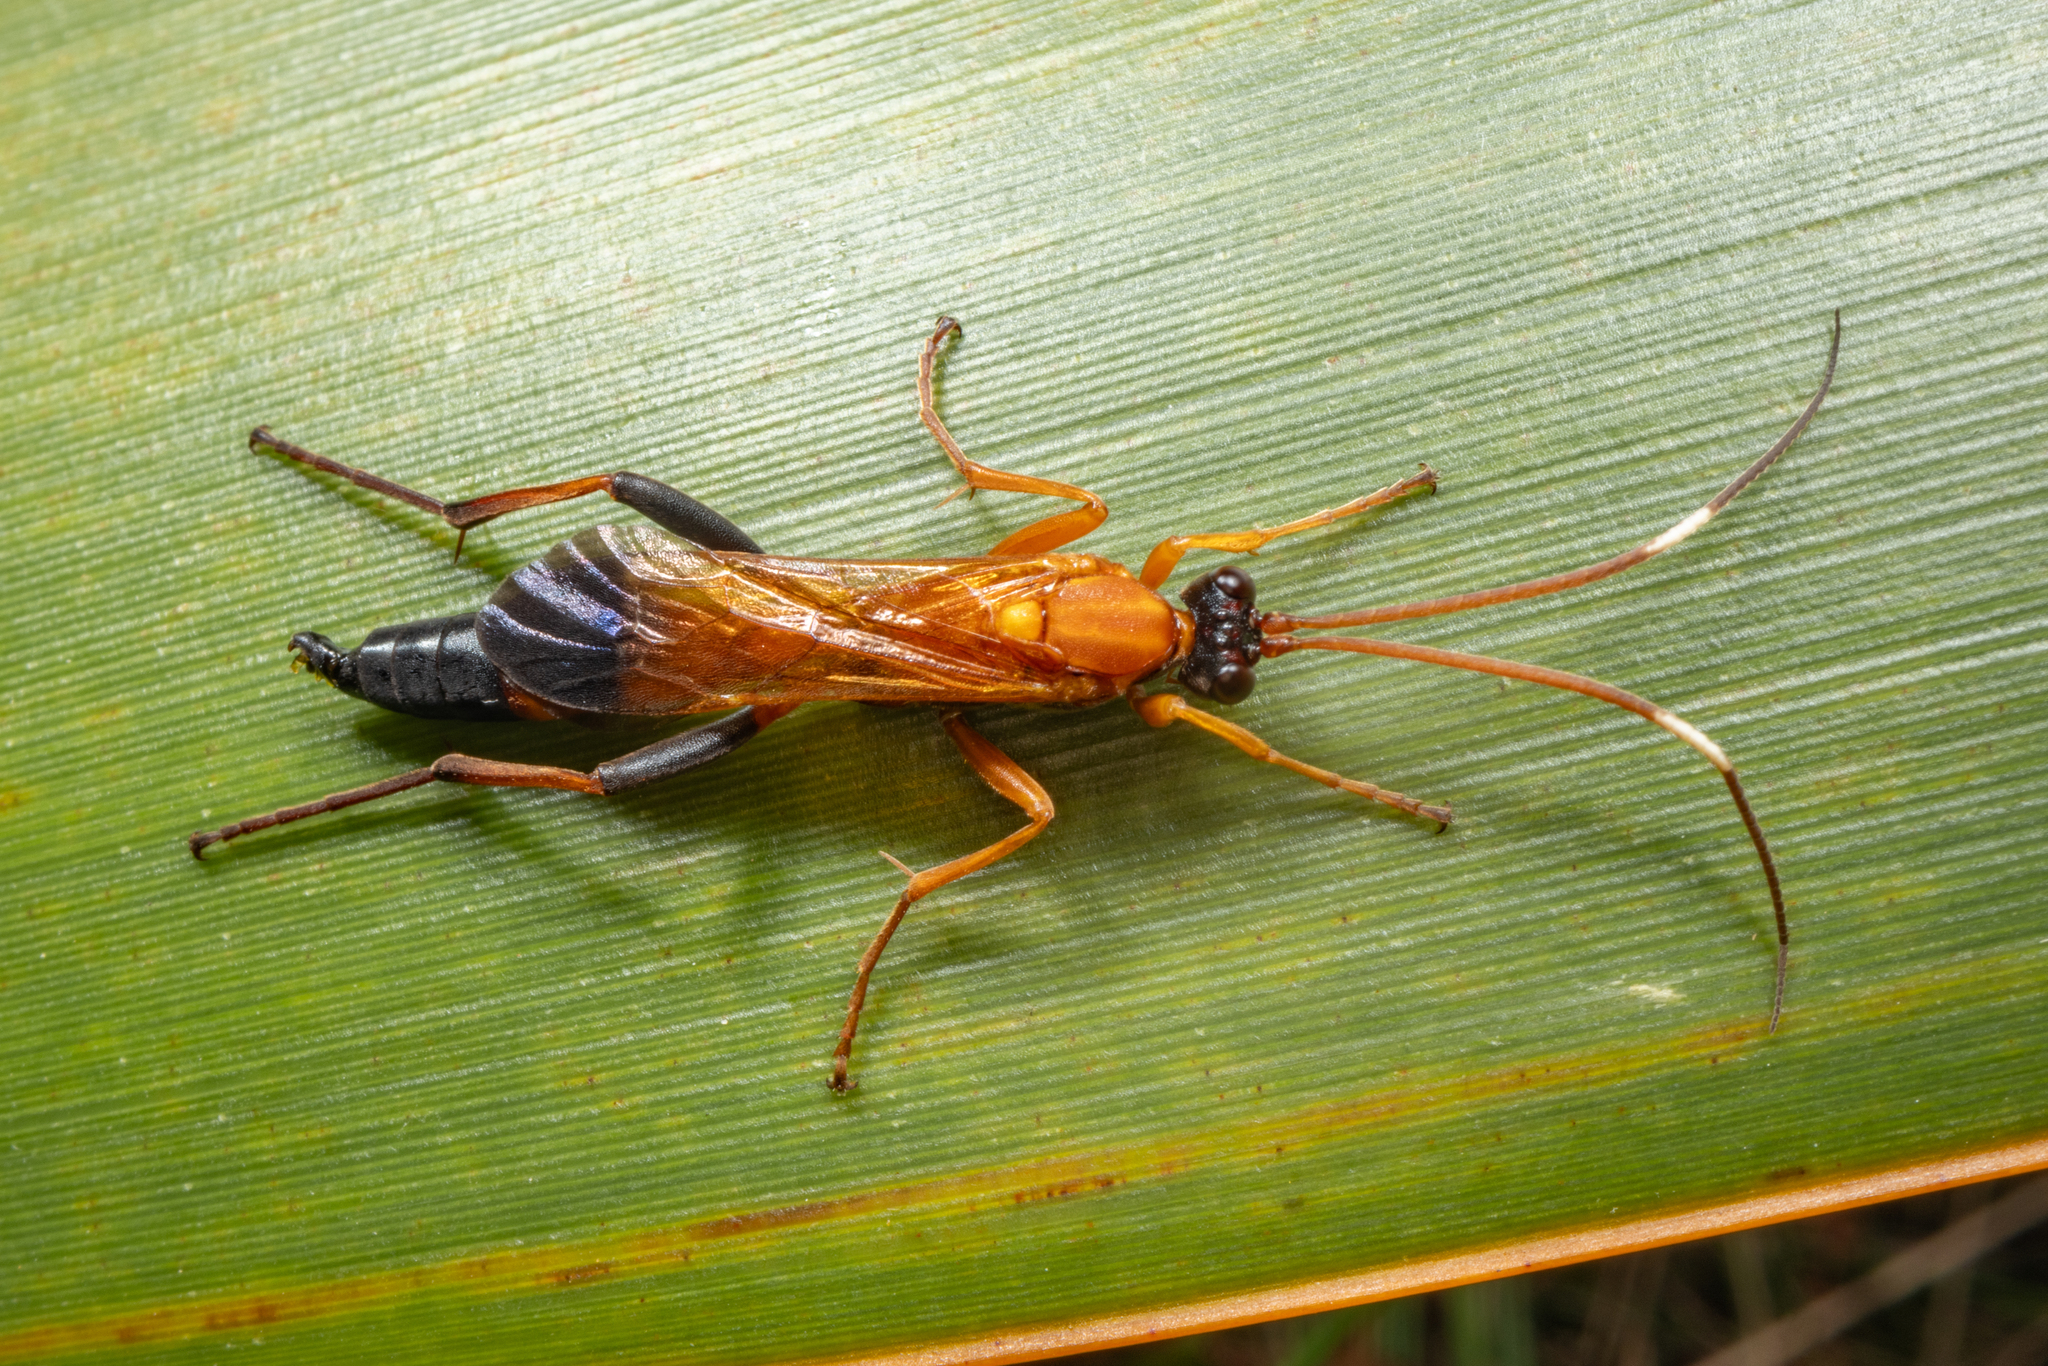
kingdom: Animalia
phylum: Arthropoda
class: Insecta
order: Hymenoptera
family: Ichneumonidae
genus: Ctenochares
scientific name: Ctenochares bicolorus
